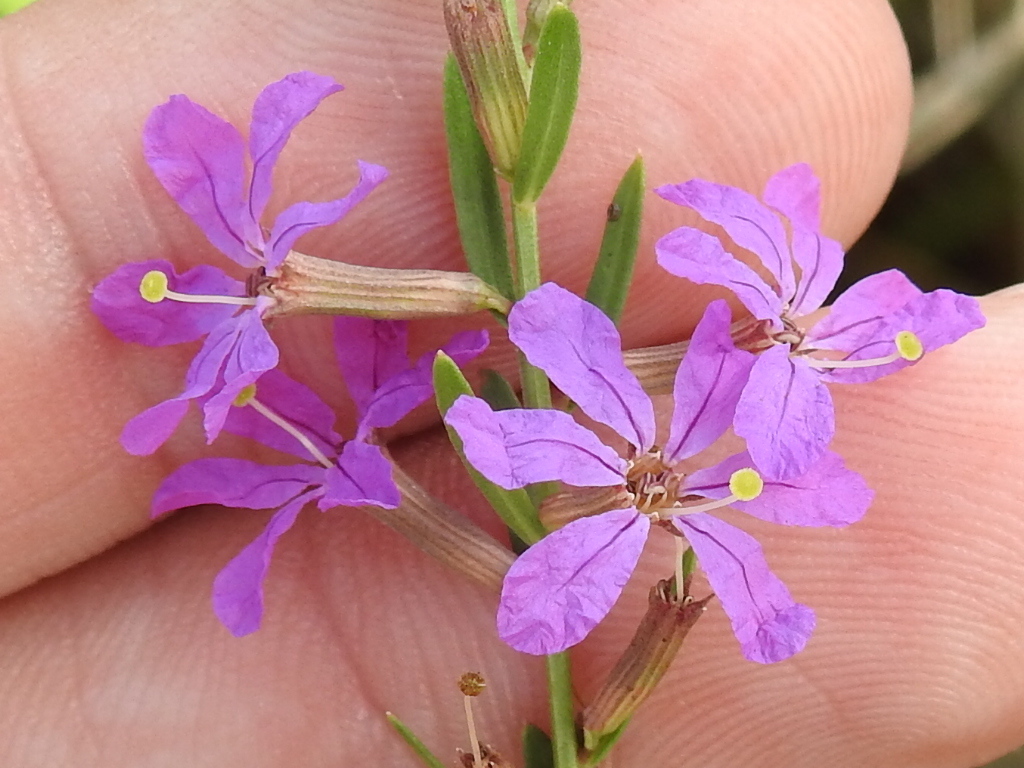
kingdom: Plantae
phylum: Tracheophyta
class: Magnoliopsida
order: Myrtales
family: Lythraceae
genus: Lythrum
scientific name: Lythrum alatum
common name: Winged loosestrife
